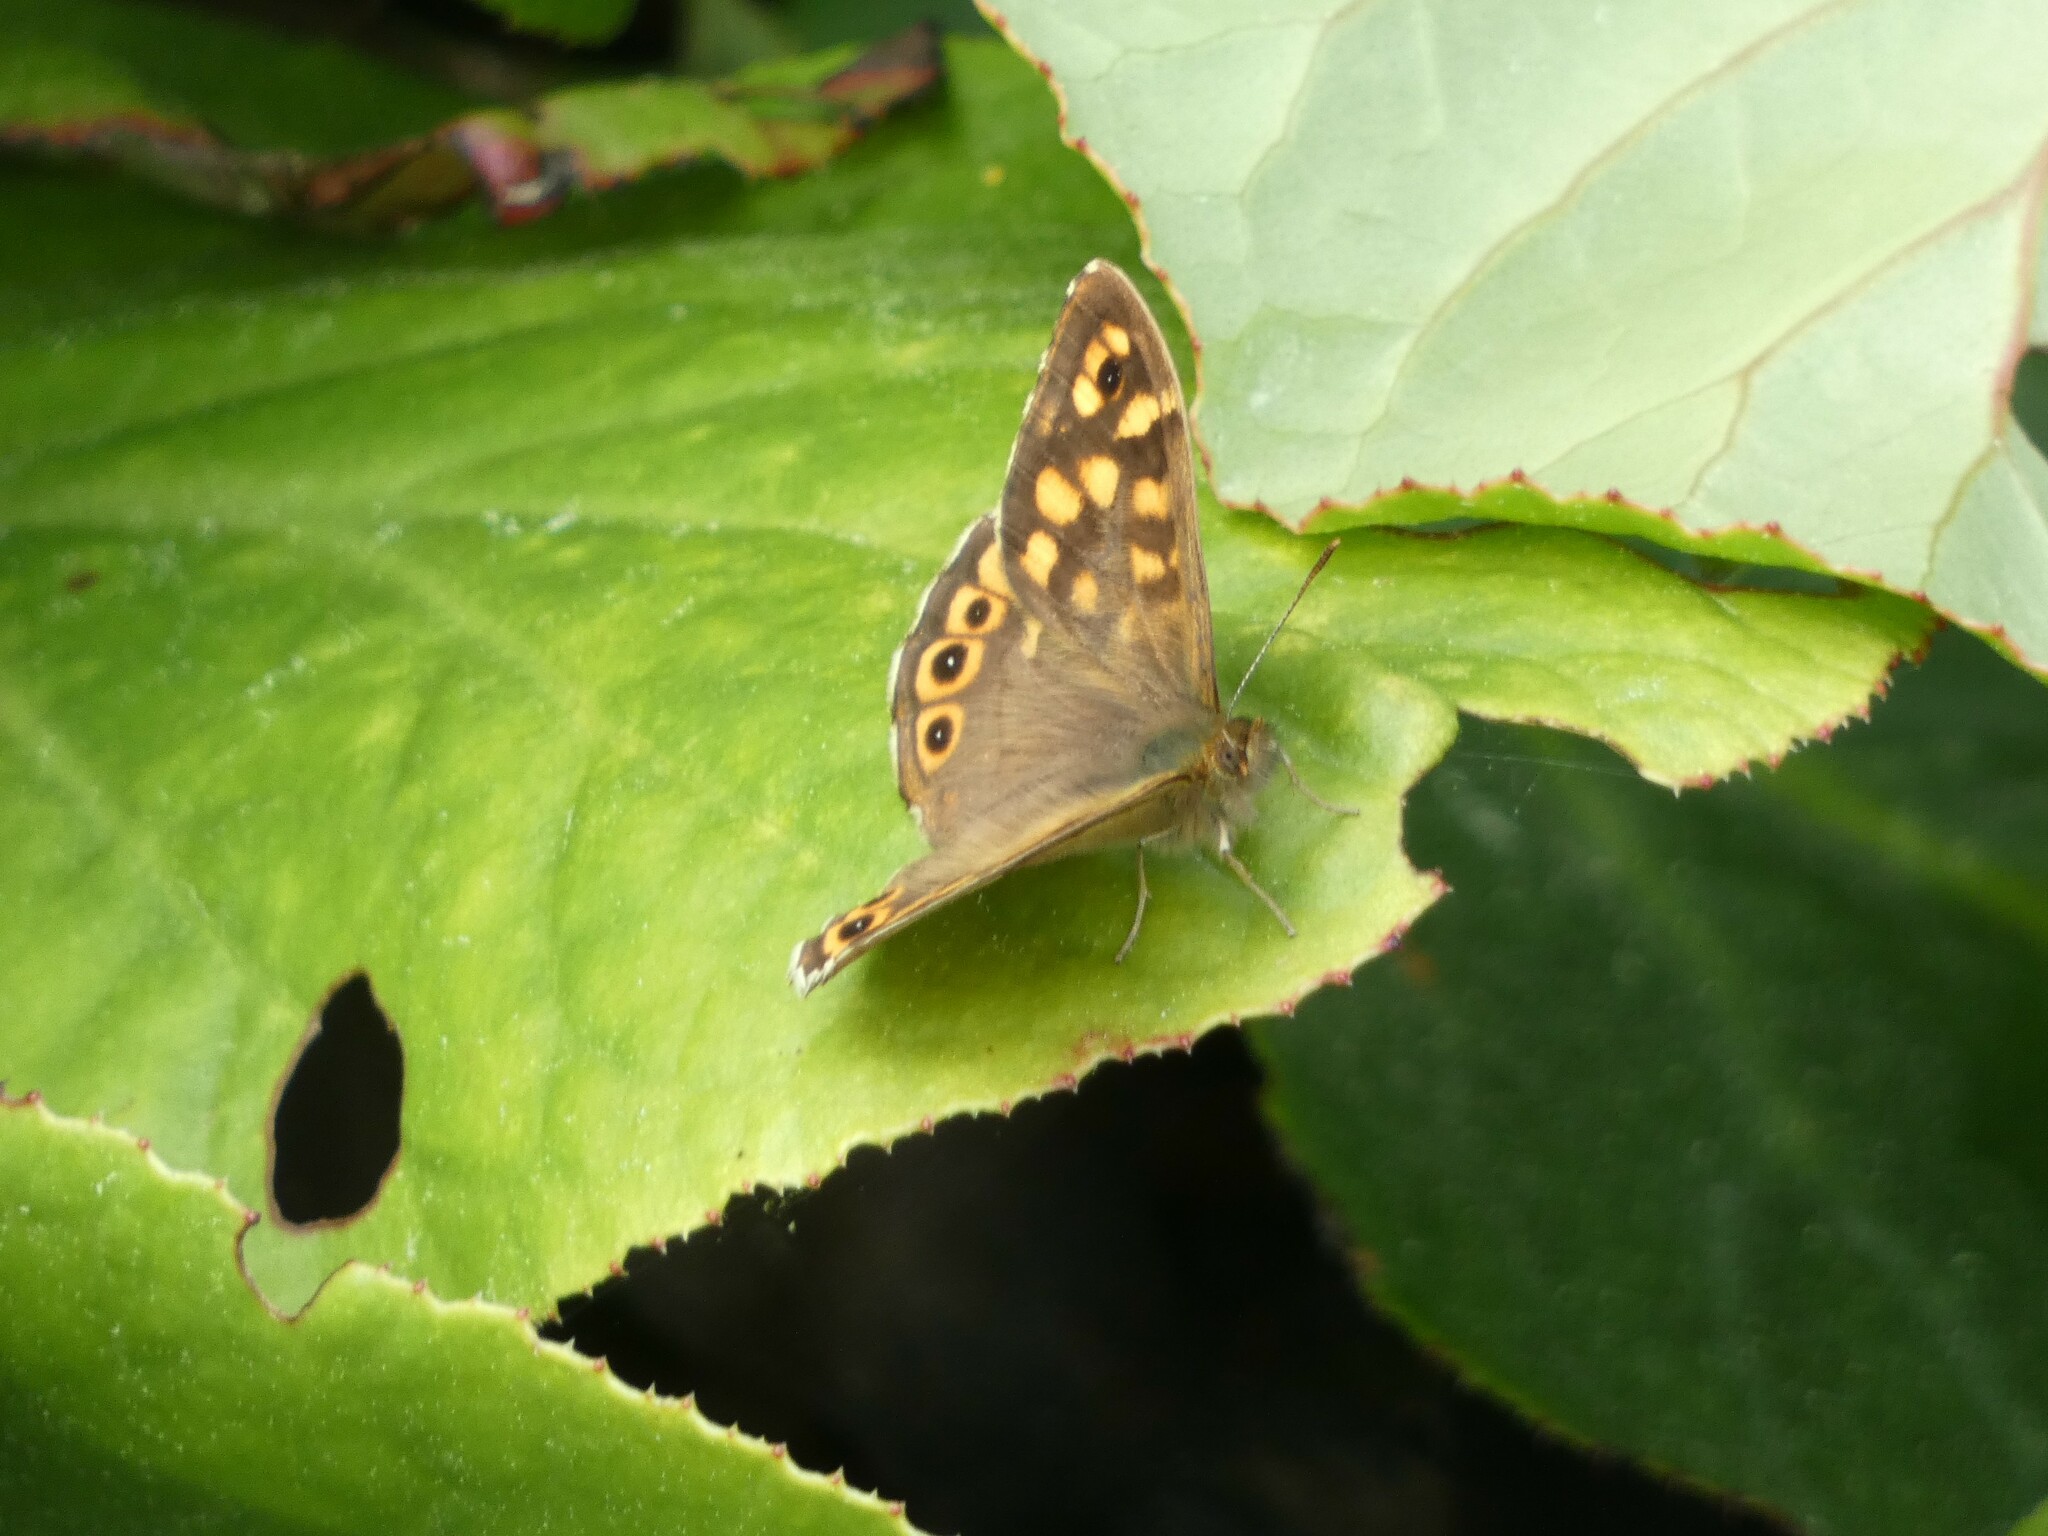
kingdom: Animalia
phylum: Arthropoda
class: Insecta
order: Lepidoptera
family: Nymphalidae
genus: Pararge
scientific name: Pararge aegeria
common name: Speckled wood
